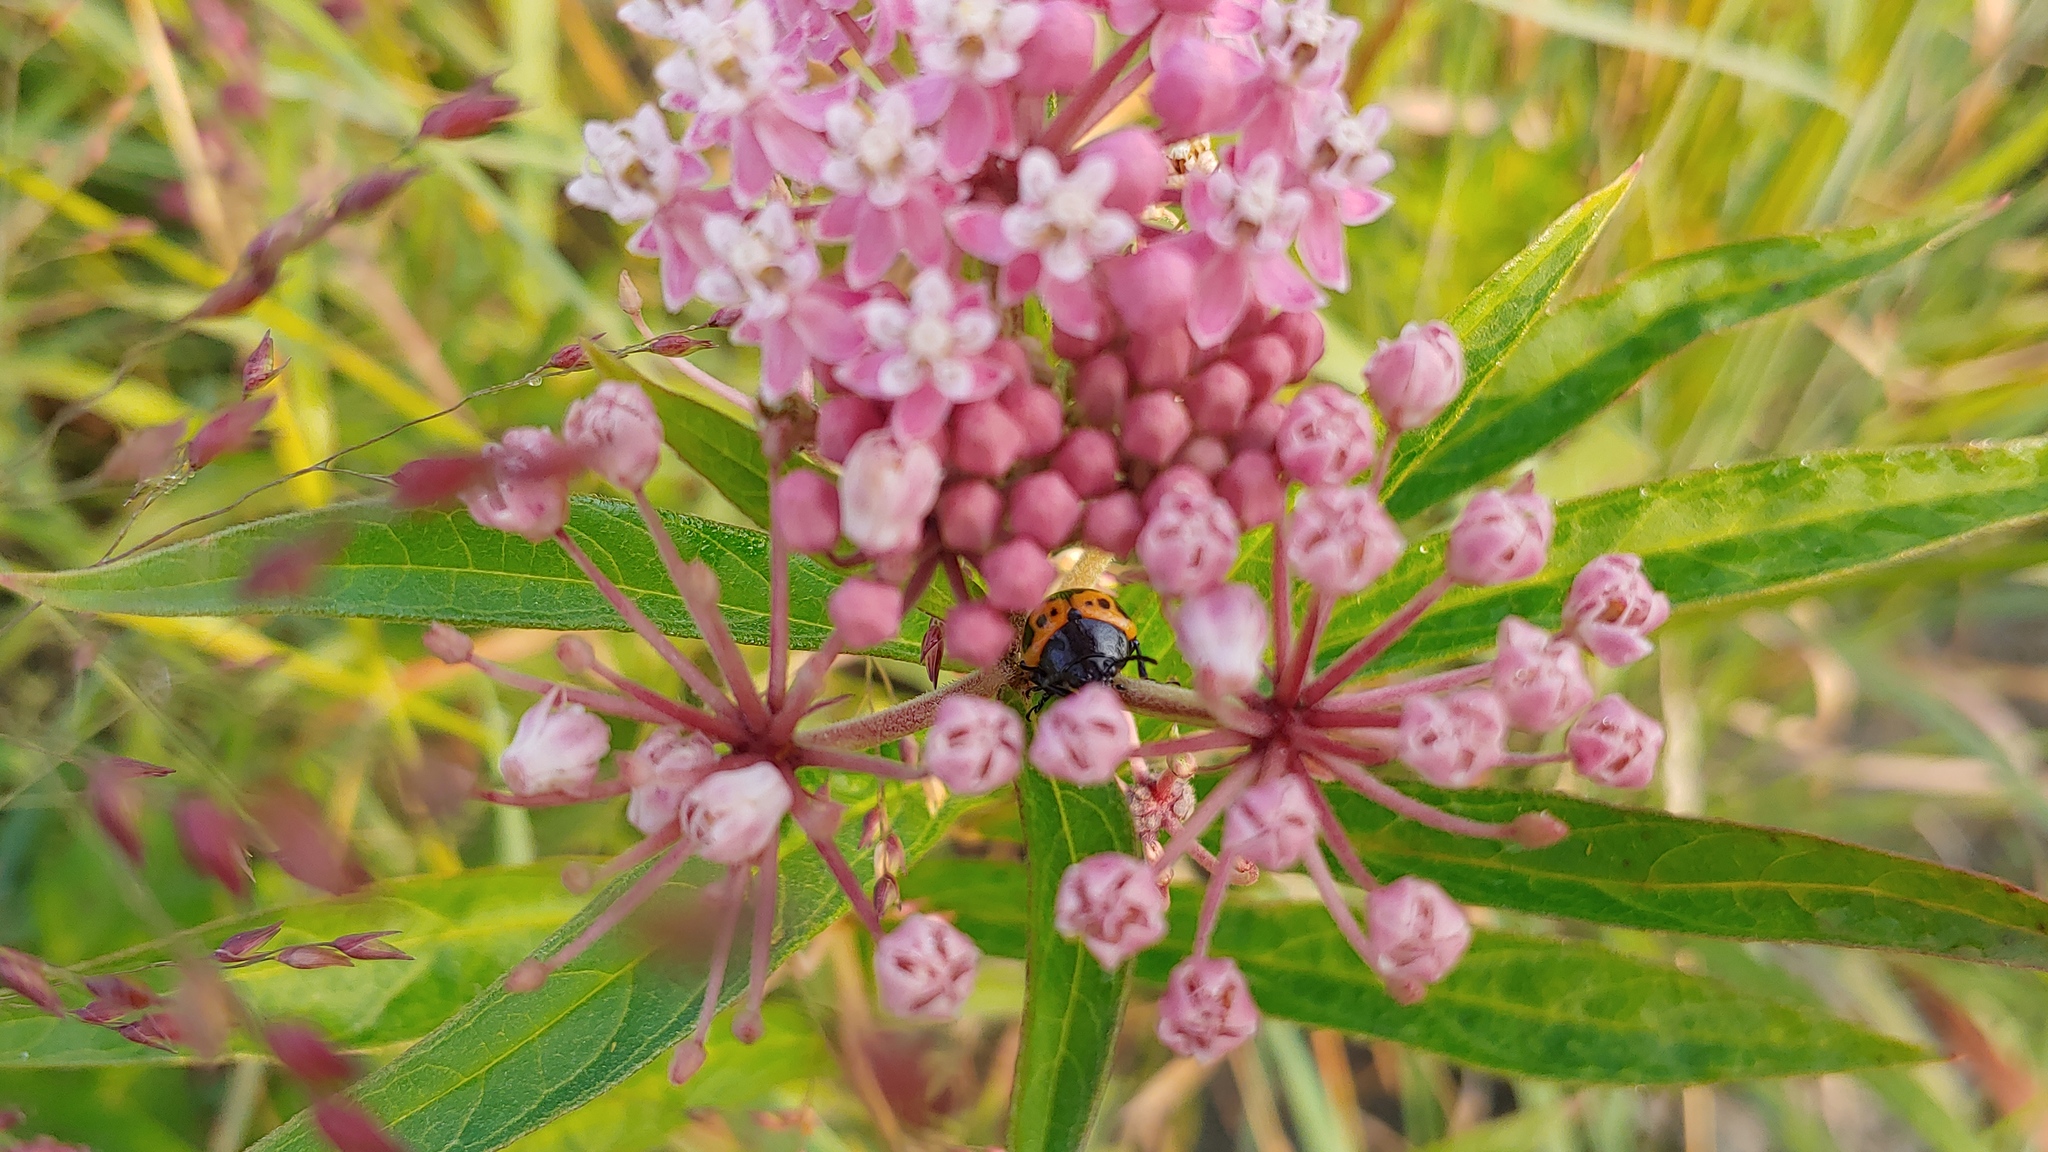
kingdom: Animalia
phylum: Arthropoda
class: Insecta
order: Coleoptera
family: Chrysomelidae
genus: Labidomera
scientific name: Labidomera clivicollis
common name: Swamp milkweed leaf beetle
